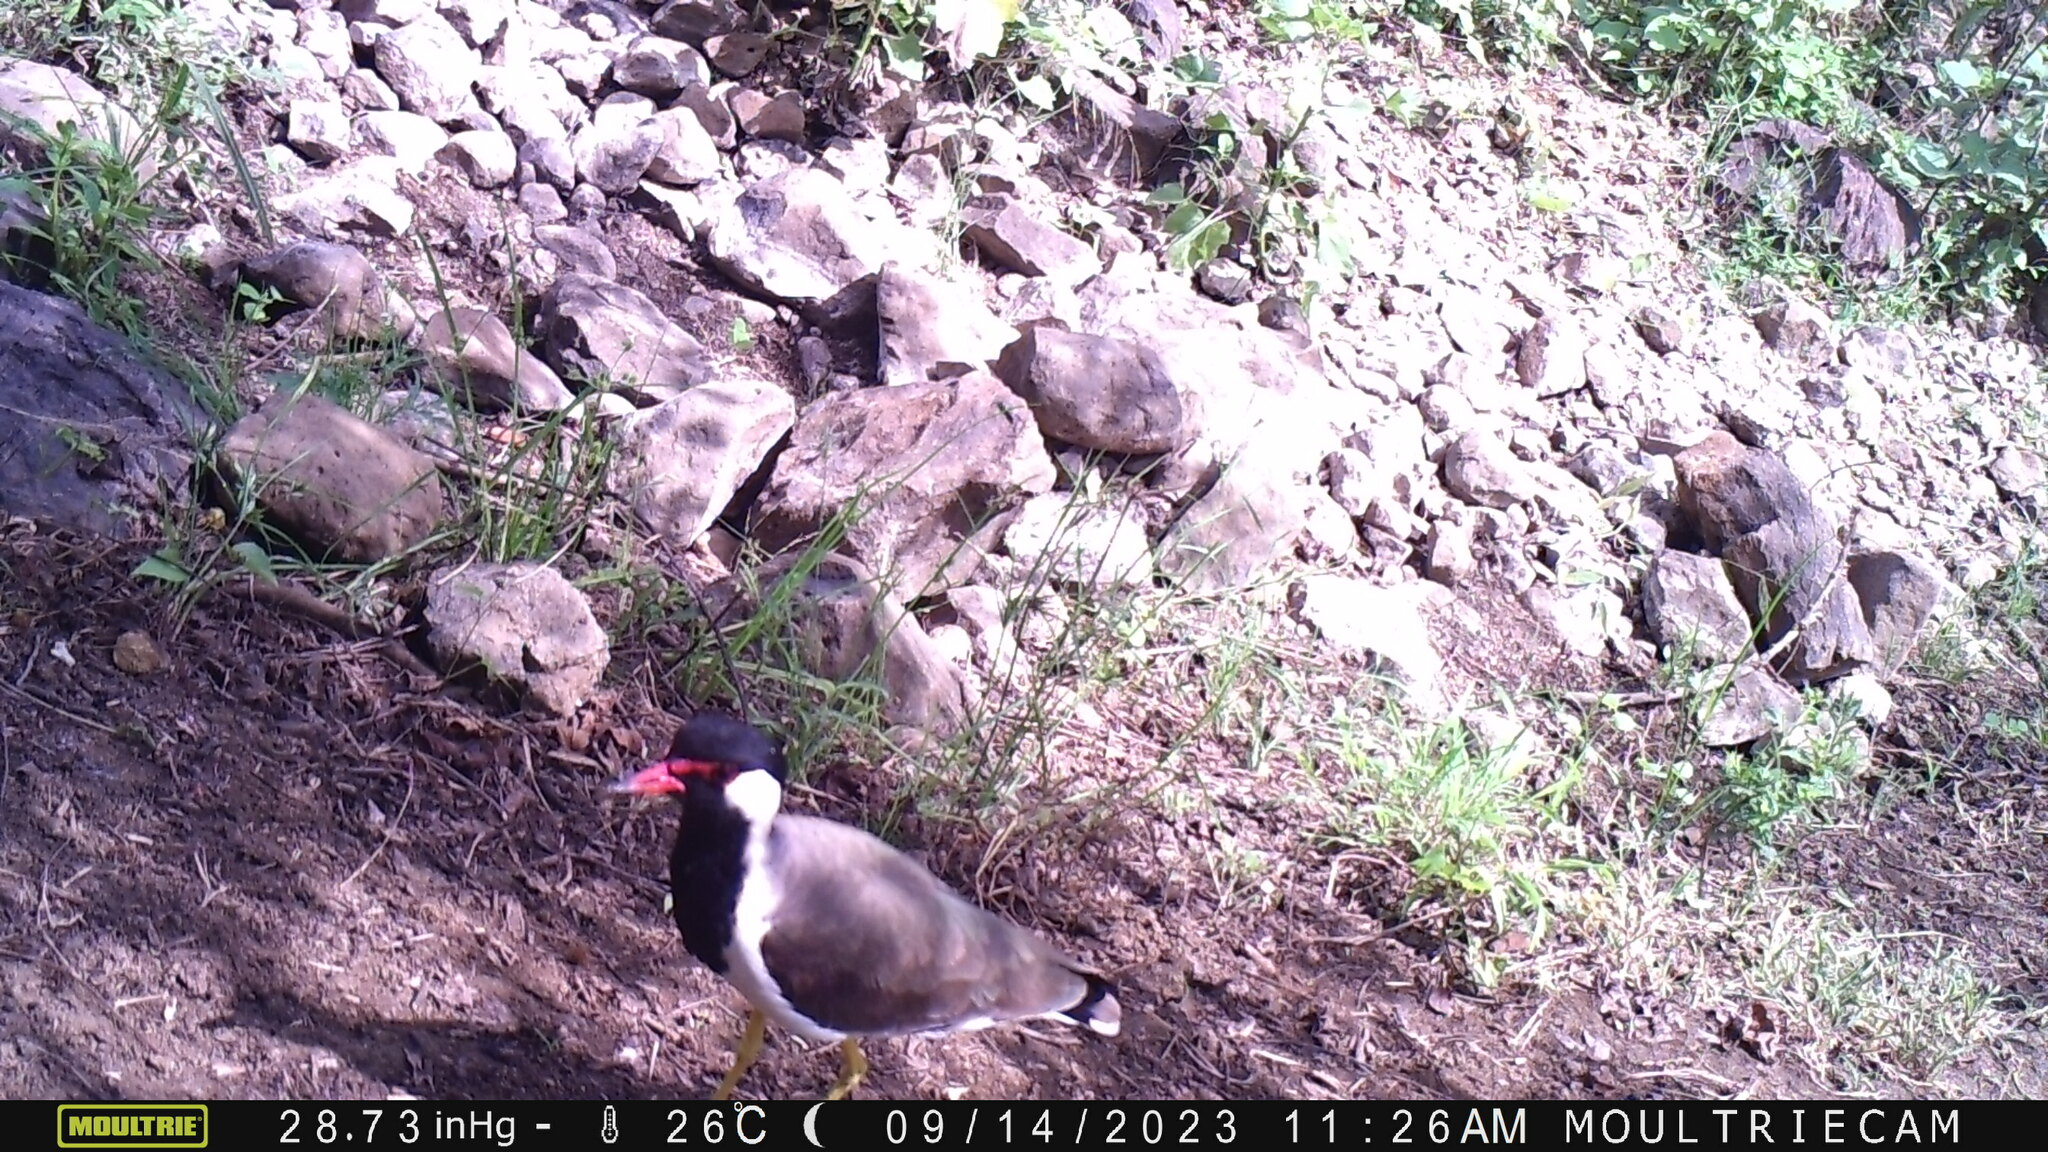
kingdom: Animalia
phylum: Chordata
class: Aves
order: Charadriiformes
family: Charadriidae
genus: Vanellus
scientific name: Vanellus indicus
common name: Red-wattled lapwing
